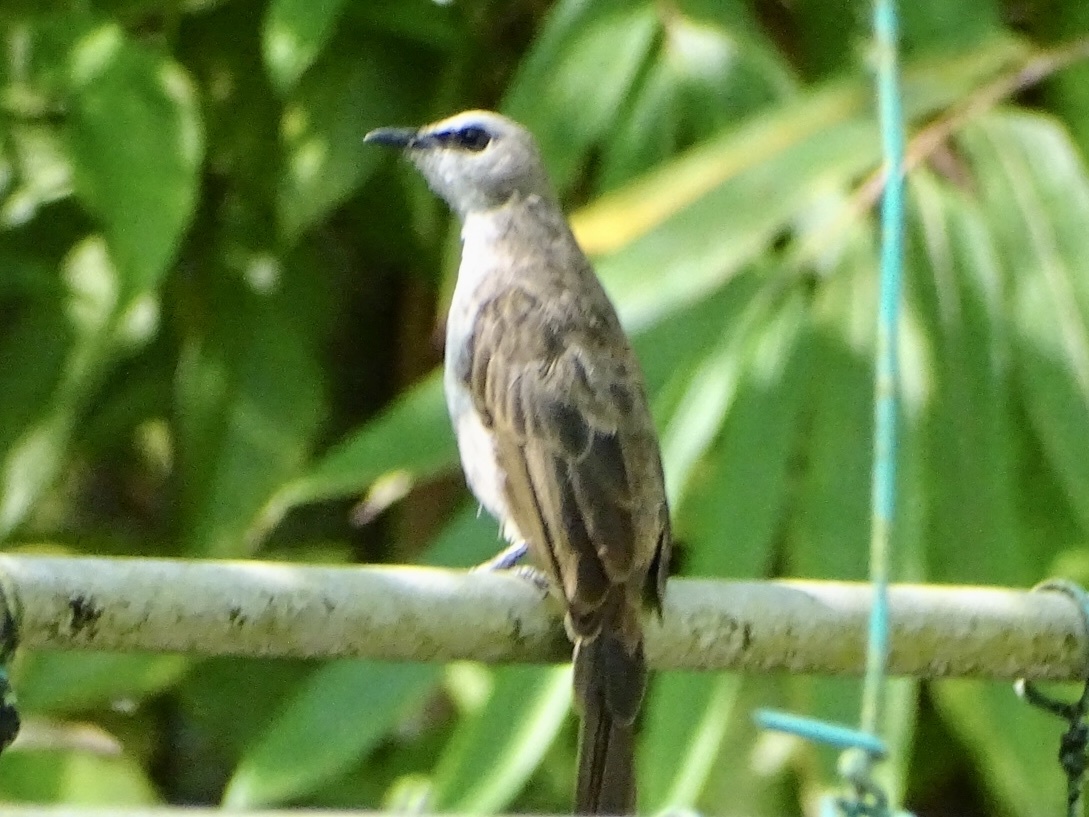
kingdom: Animalia
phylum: Chordata
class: Aves
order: Passeriformes
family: Pycnonotidae
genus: Pycnonotus
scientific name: Pycnonotus goiavier
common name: Yellow-vented bulbul
